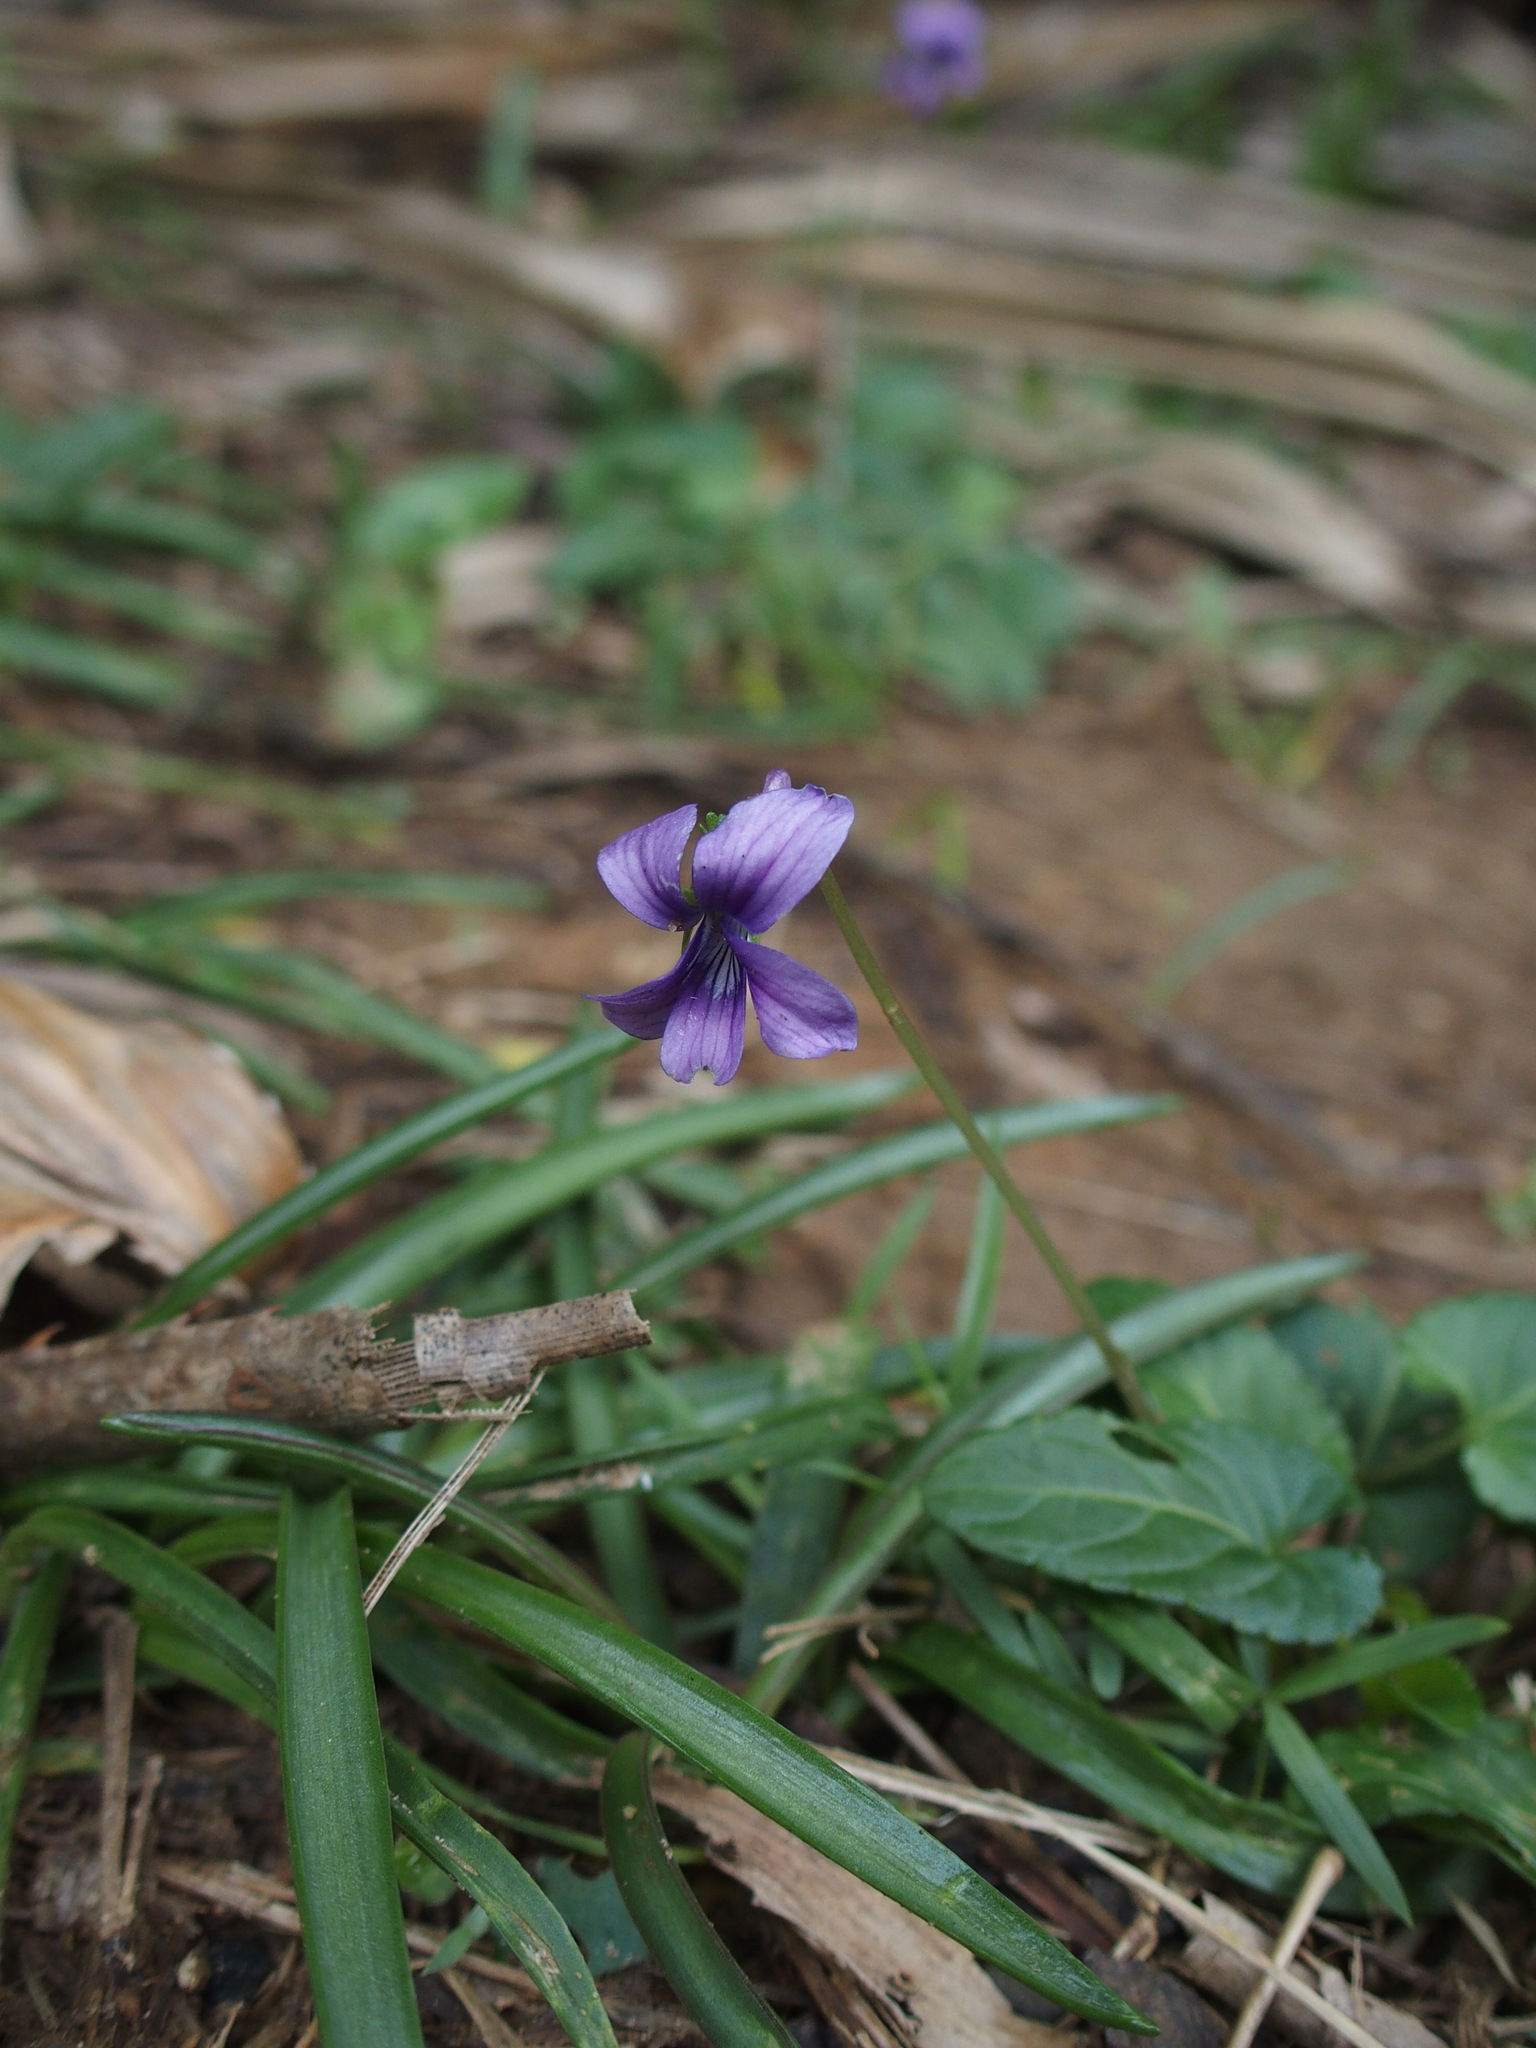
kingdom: Plantae
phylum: Tracheophyta
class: Magnoliopsida
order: Malpighiales
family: Violaceae
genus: Viola
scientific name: Viola
